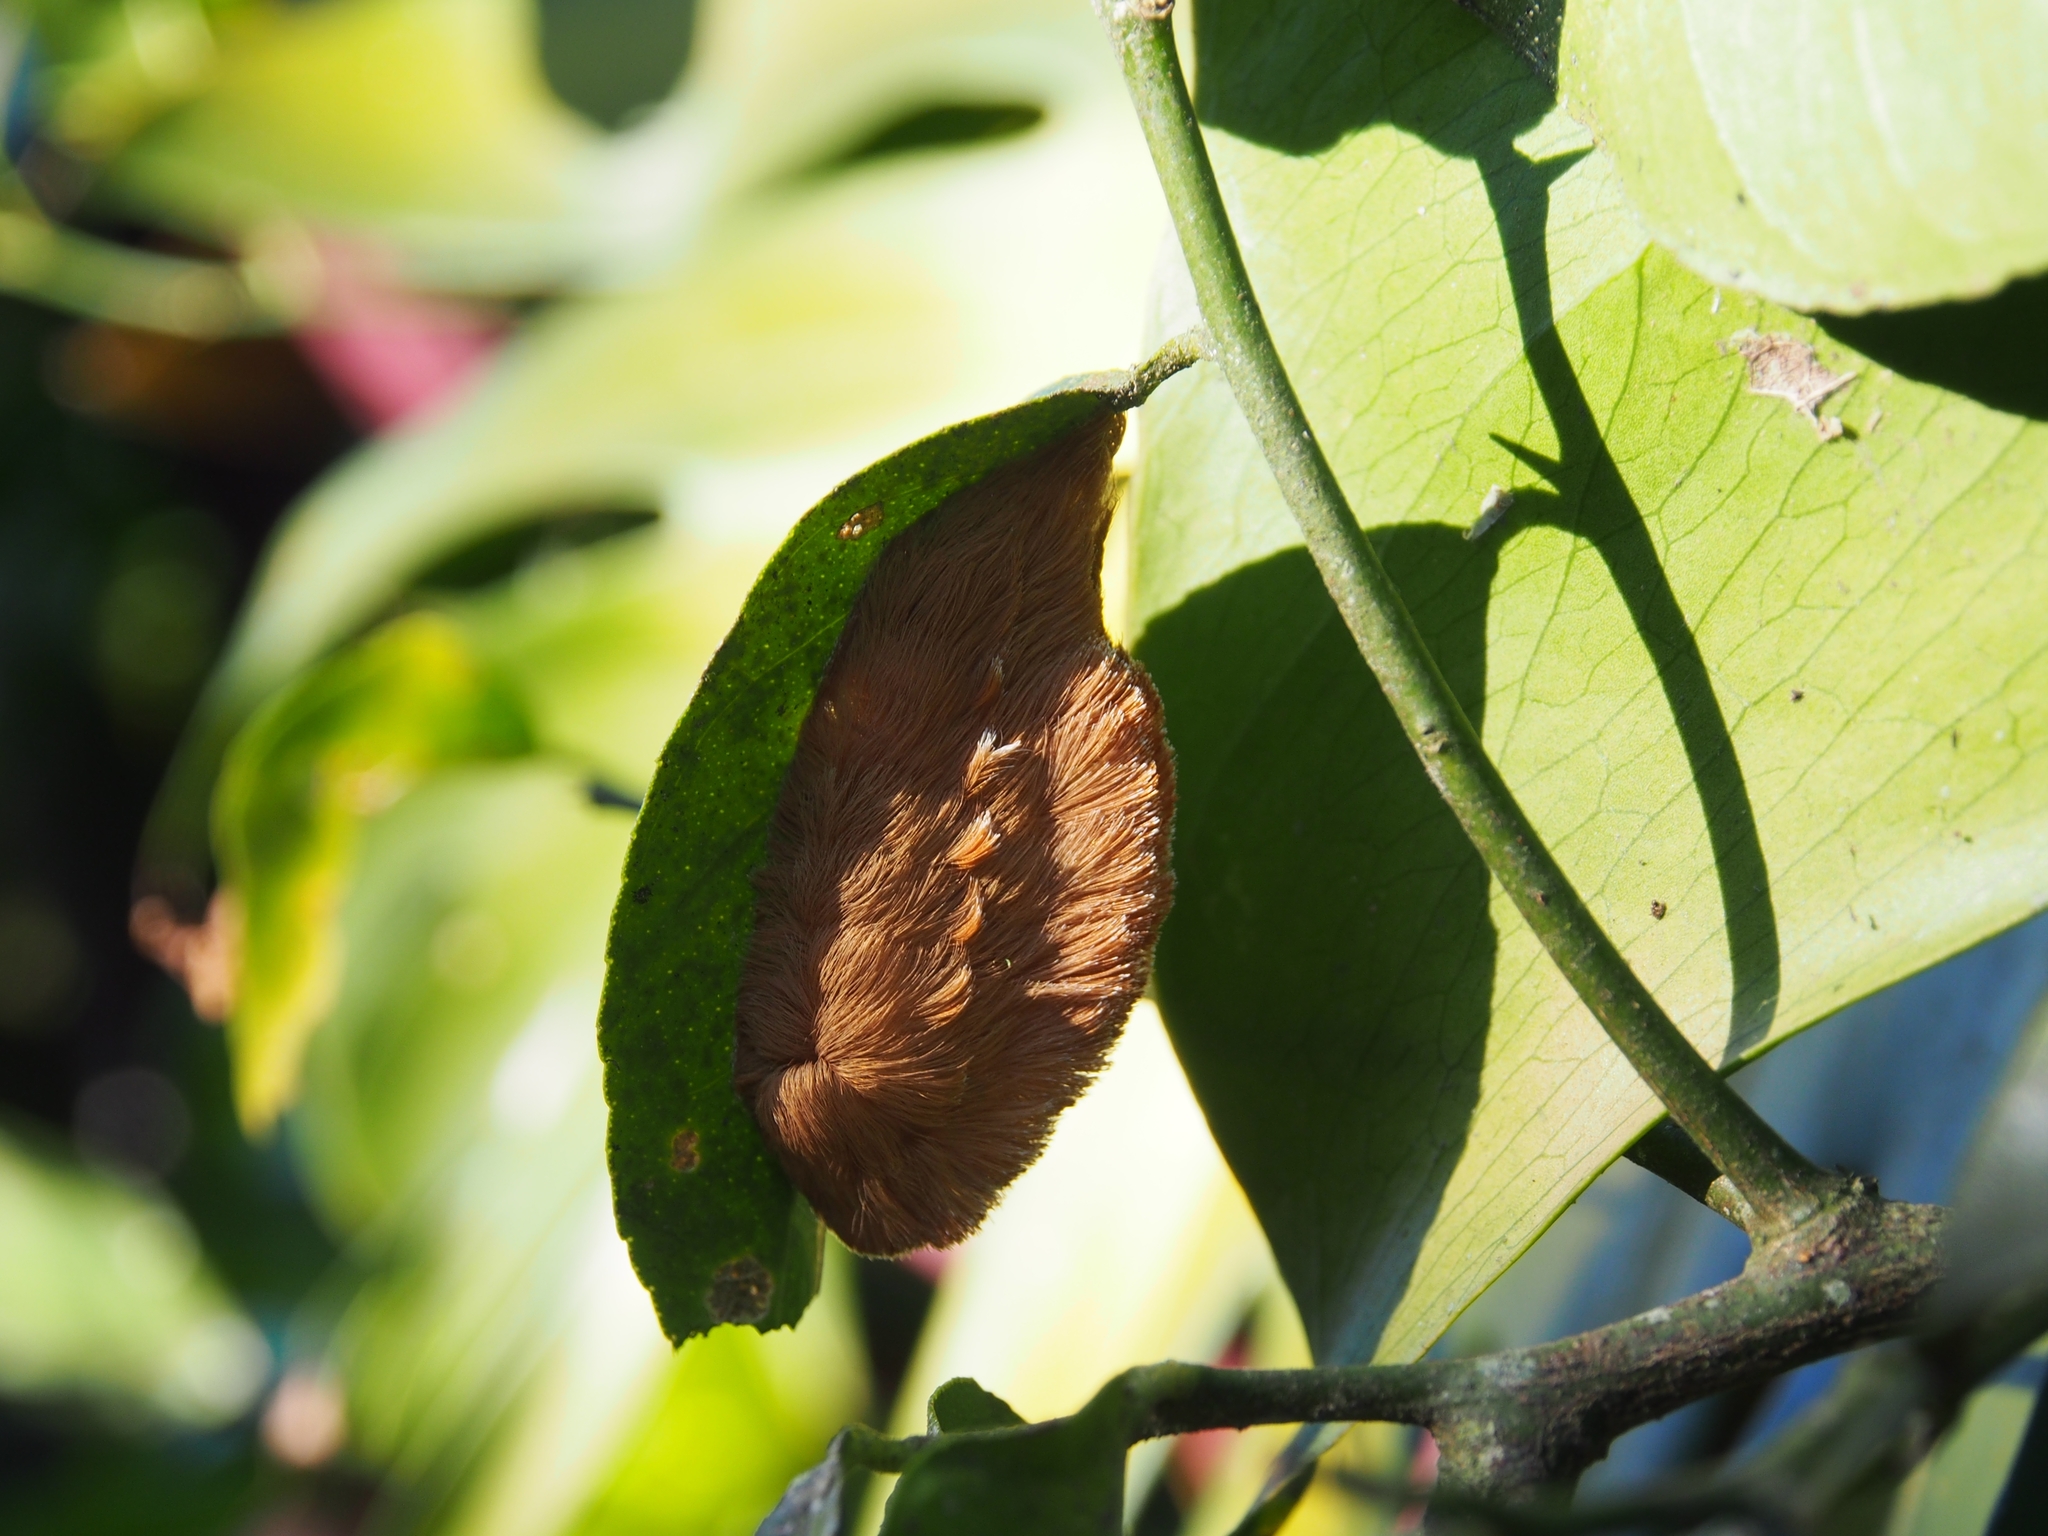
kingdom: Animalia
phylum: Arthropoda
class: Insecta
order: Lepidoptera
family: Megalopygidae
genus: Megalopyge
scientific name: Megalopyge dyari
